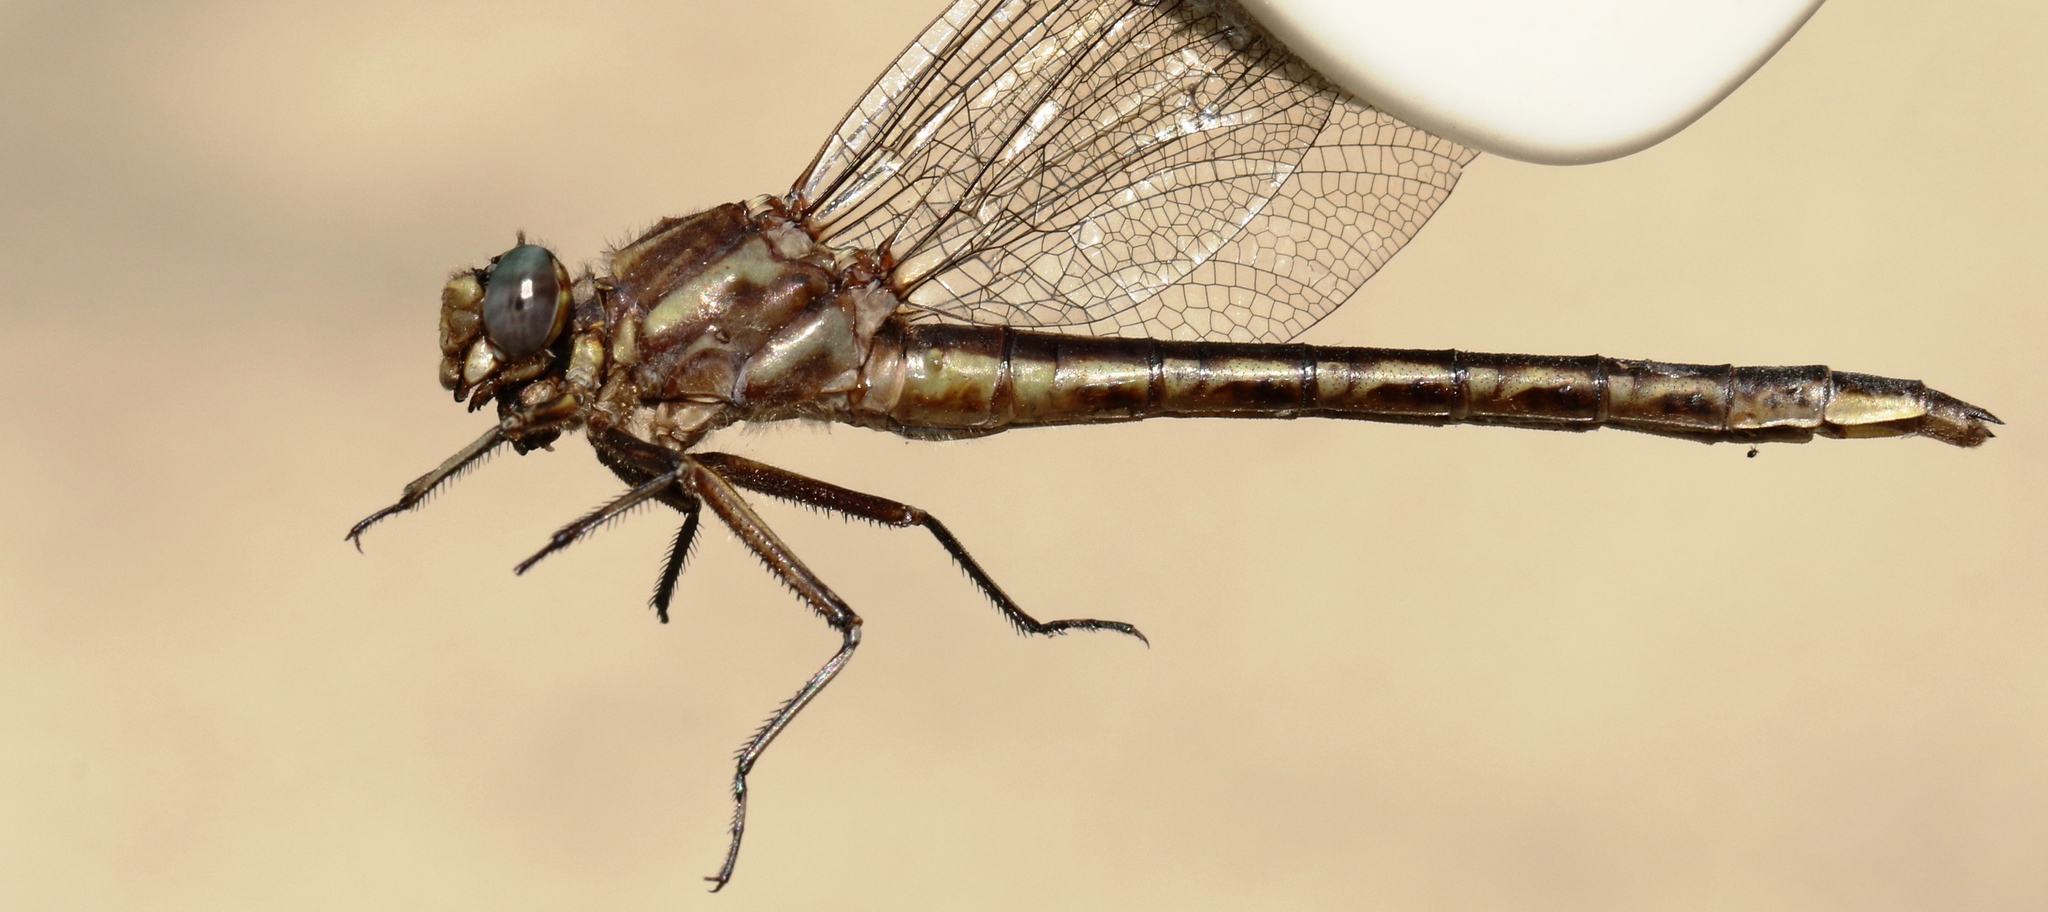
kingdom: Animalia
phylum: Arthropoda
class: Insecta
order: Odonata
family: Gomphidae
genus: Phanogomphus
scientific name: Phanogomphus spicatus
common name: Dusky clubtail
